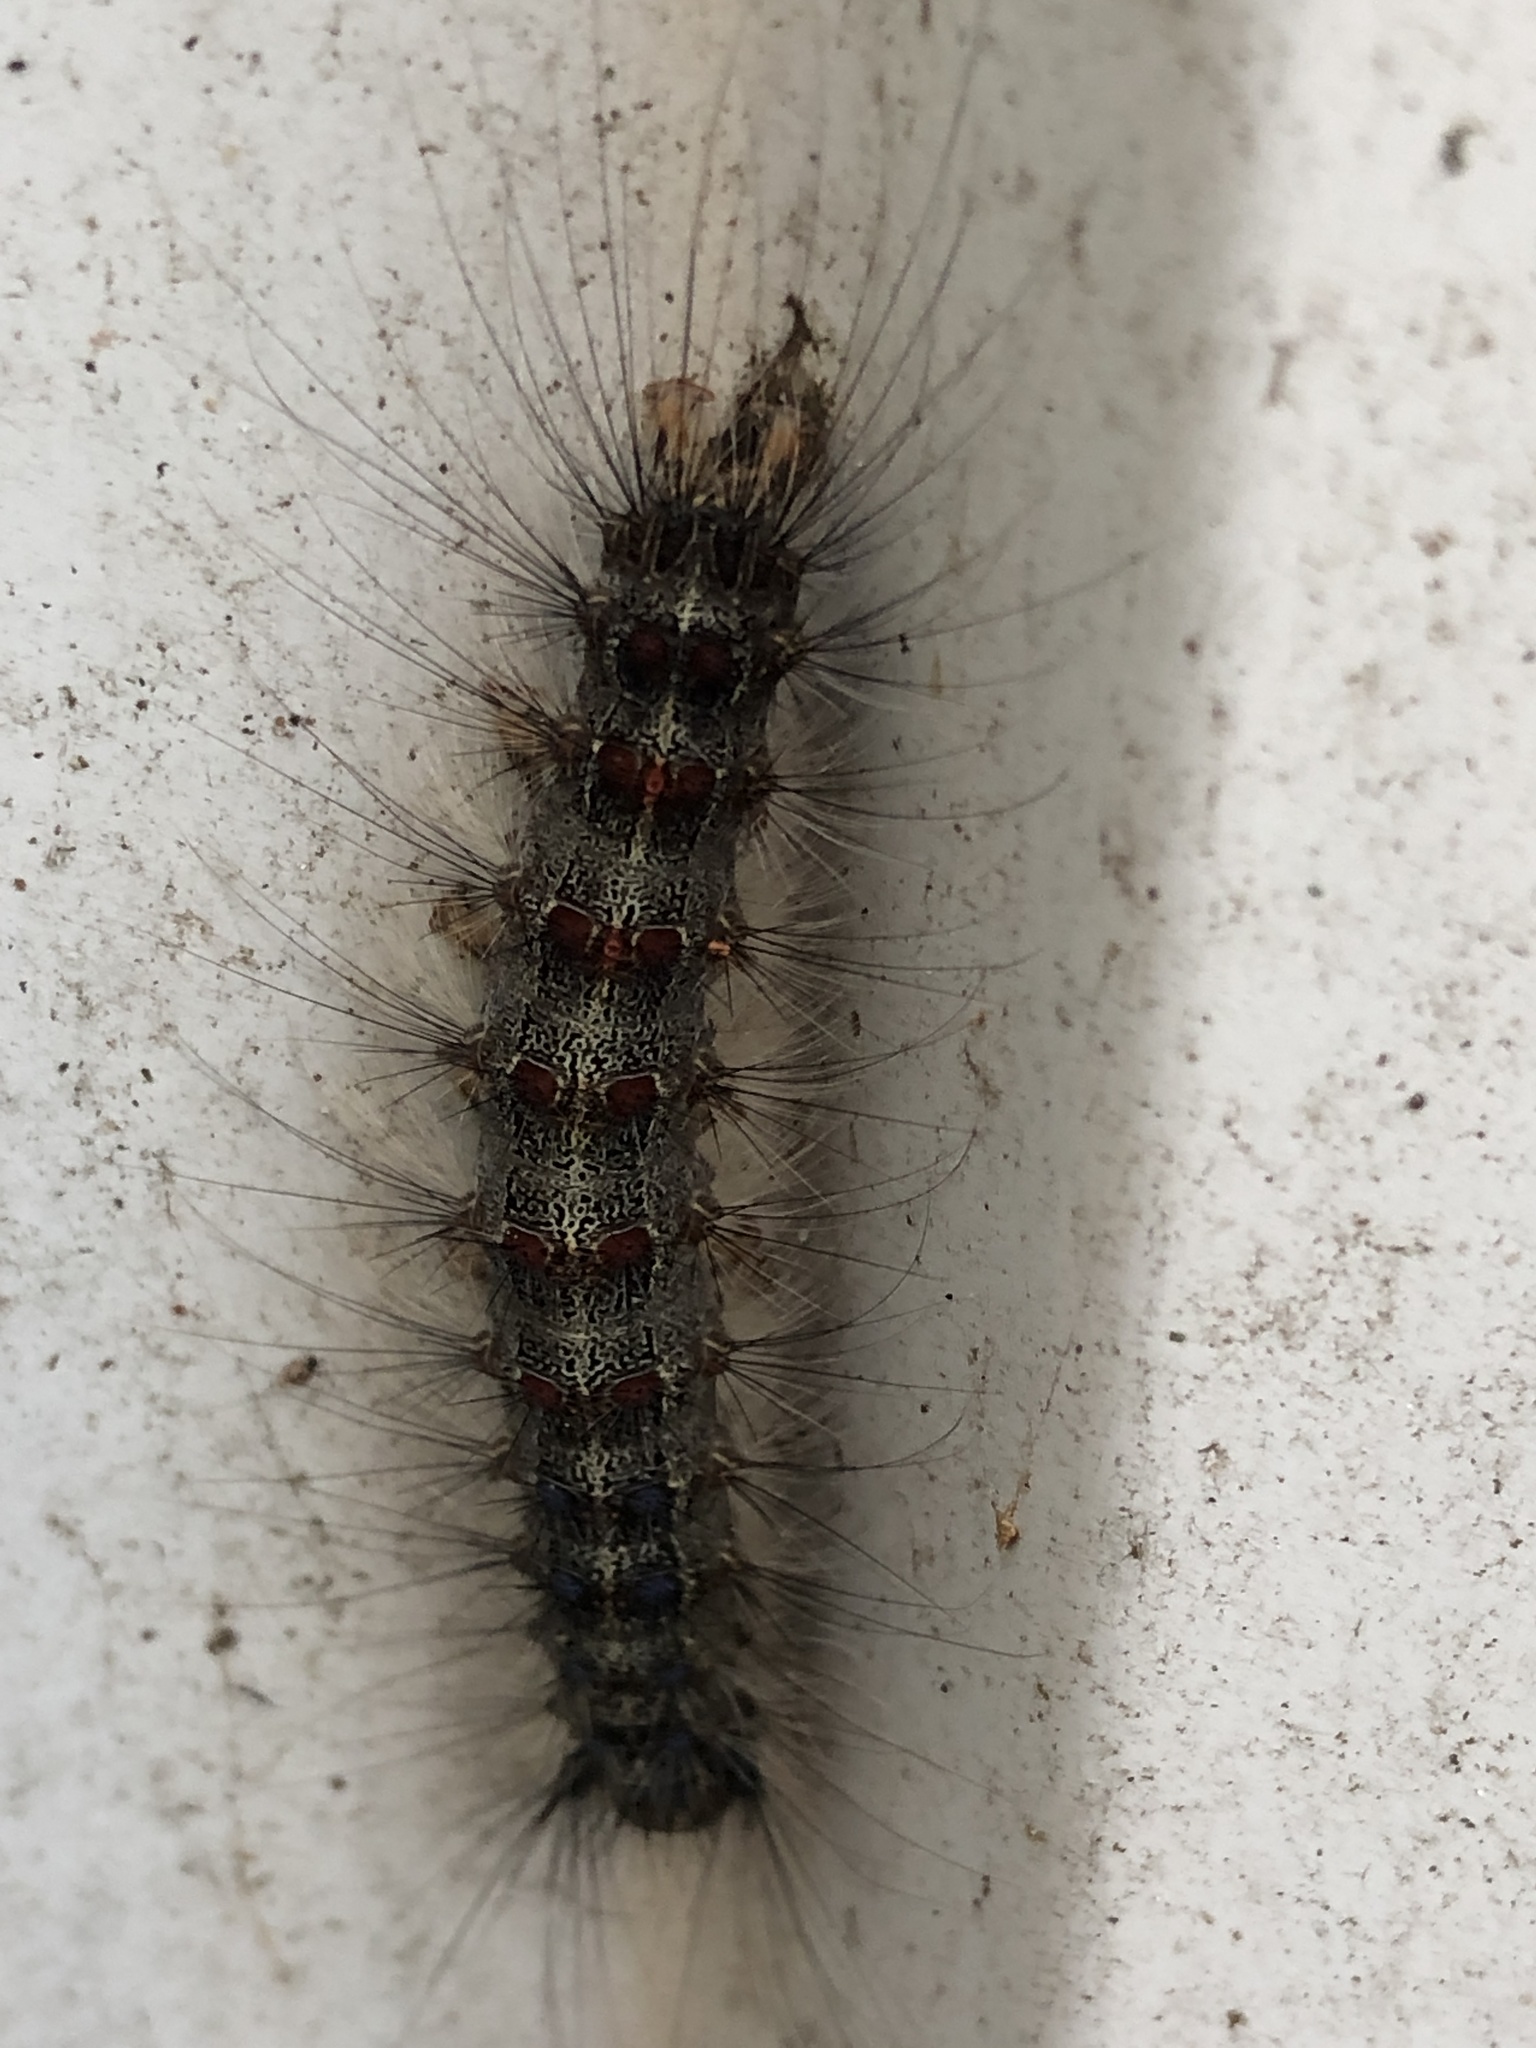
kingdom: Animalia
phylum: Arthropoda
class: Insecta
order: Lepidoptera
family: Erebidae
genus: Lymantria
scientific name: Lymantria dispar
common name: Gypsy moth
